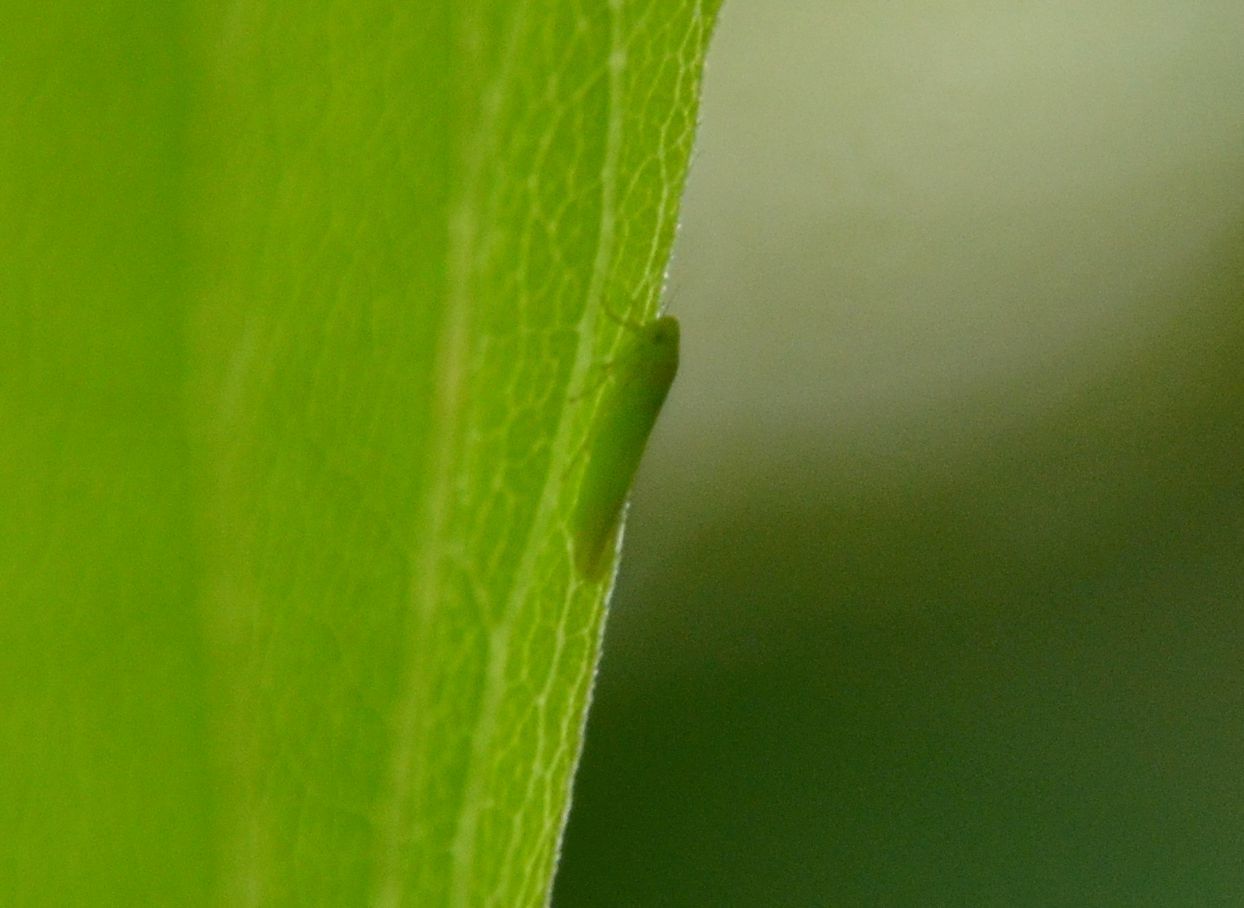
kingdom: Animalia
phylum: Arthropoda
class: Insecta
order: Hemiptera
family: Cicadellidae
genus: Hebata
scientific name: Hebata vitis
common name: The smaller green leafhopper
